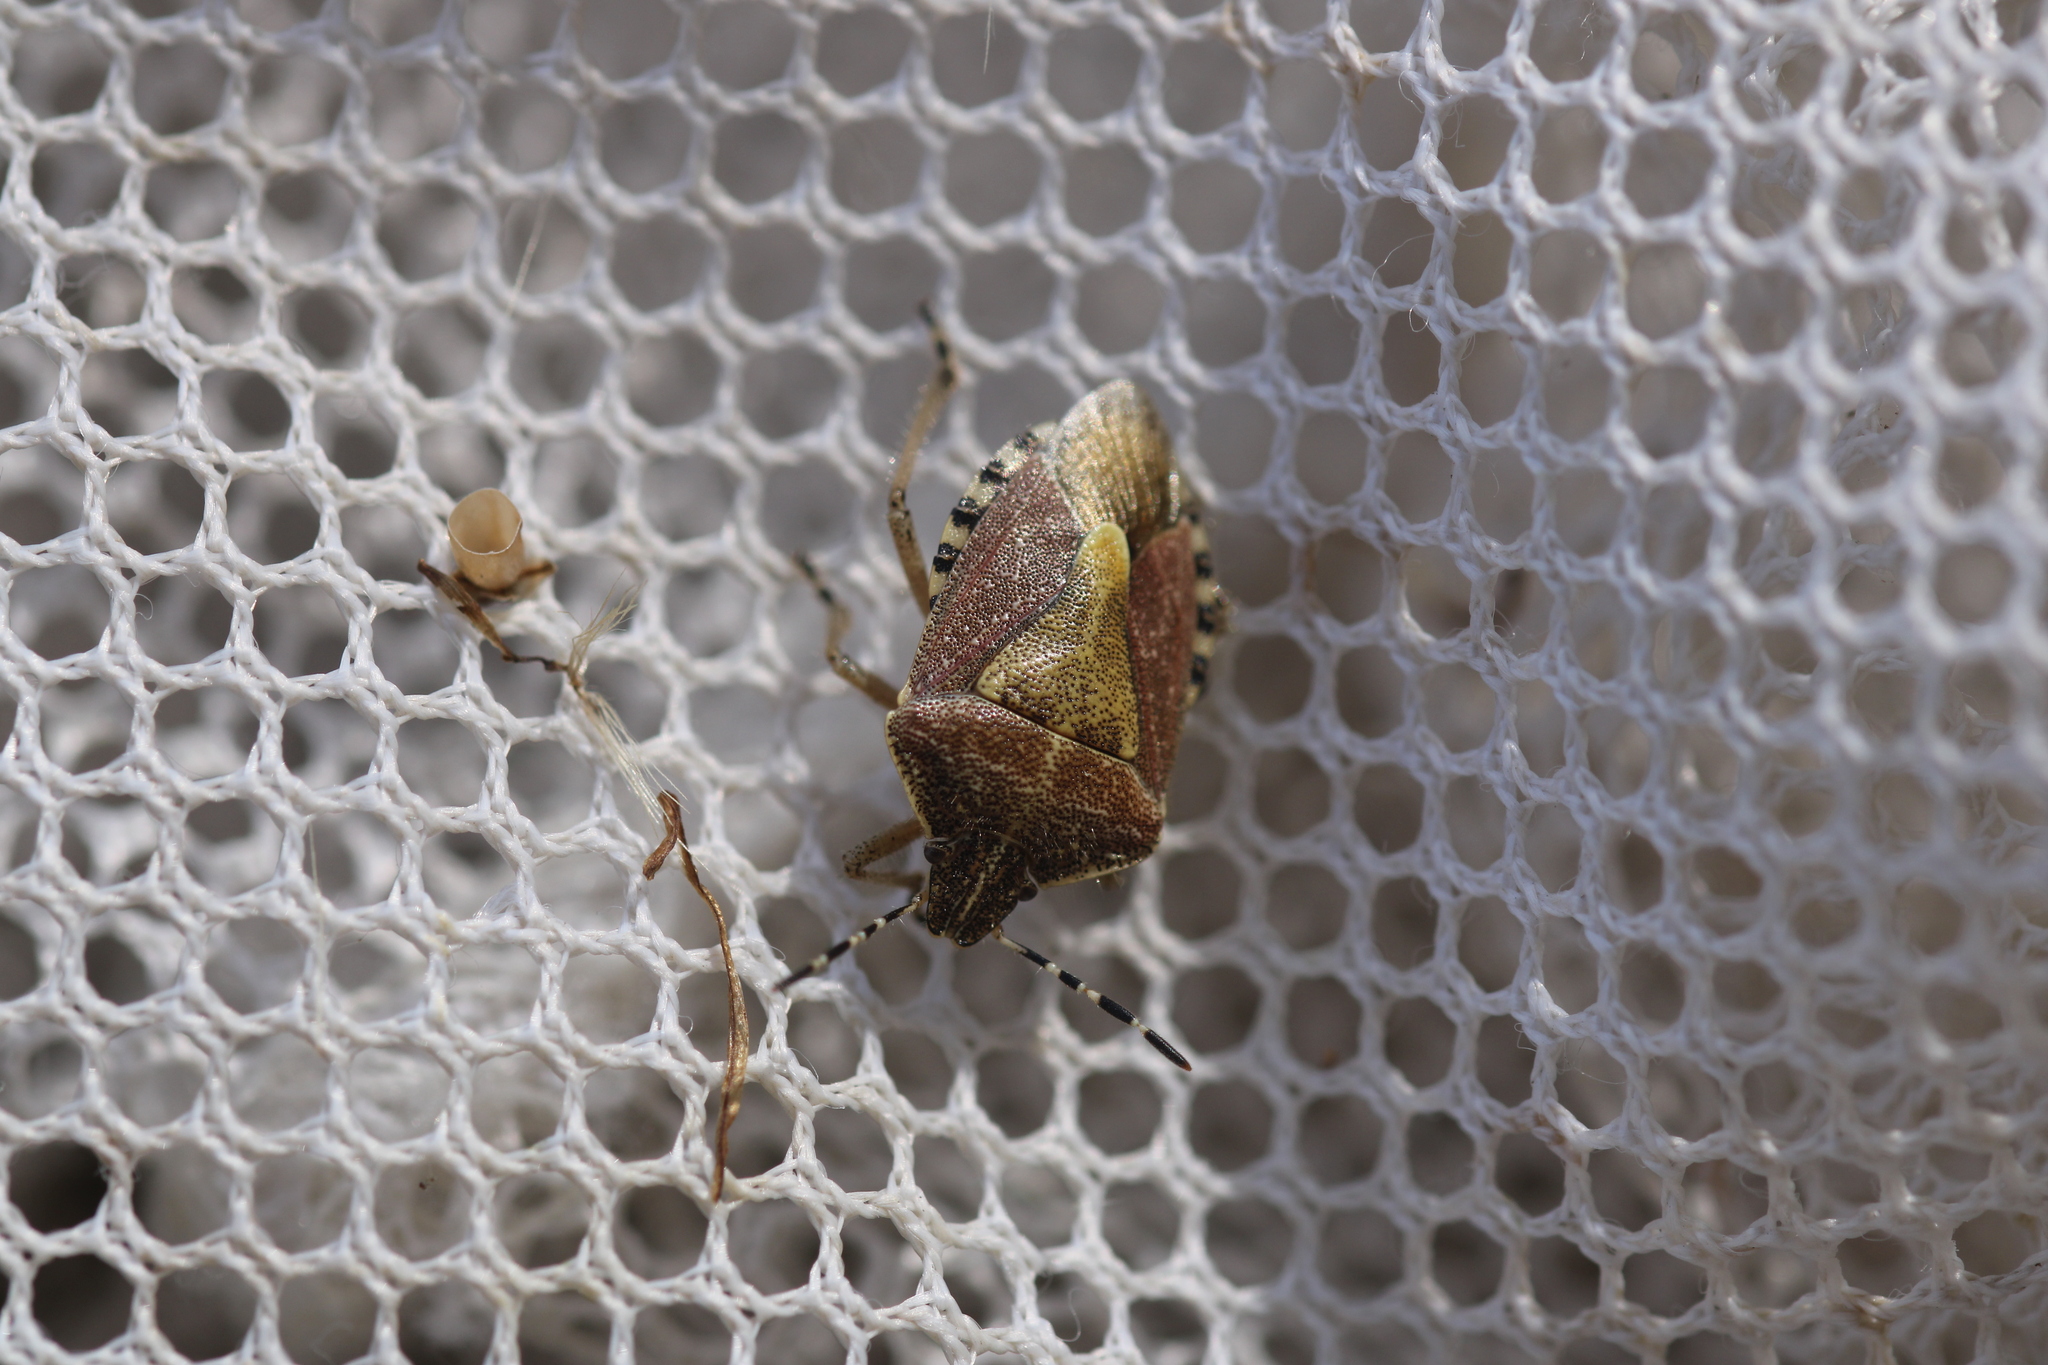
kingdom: Animalia
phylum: Arthropoda
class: Insecta
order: Hemiptera
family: Pentatomidae
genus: Dolycoris
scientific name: Dolycoris baccarum
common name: Sloe bug
